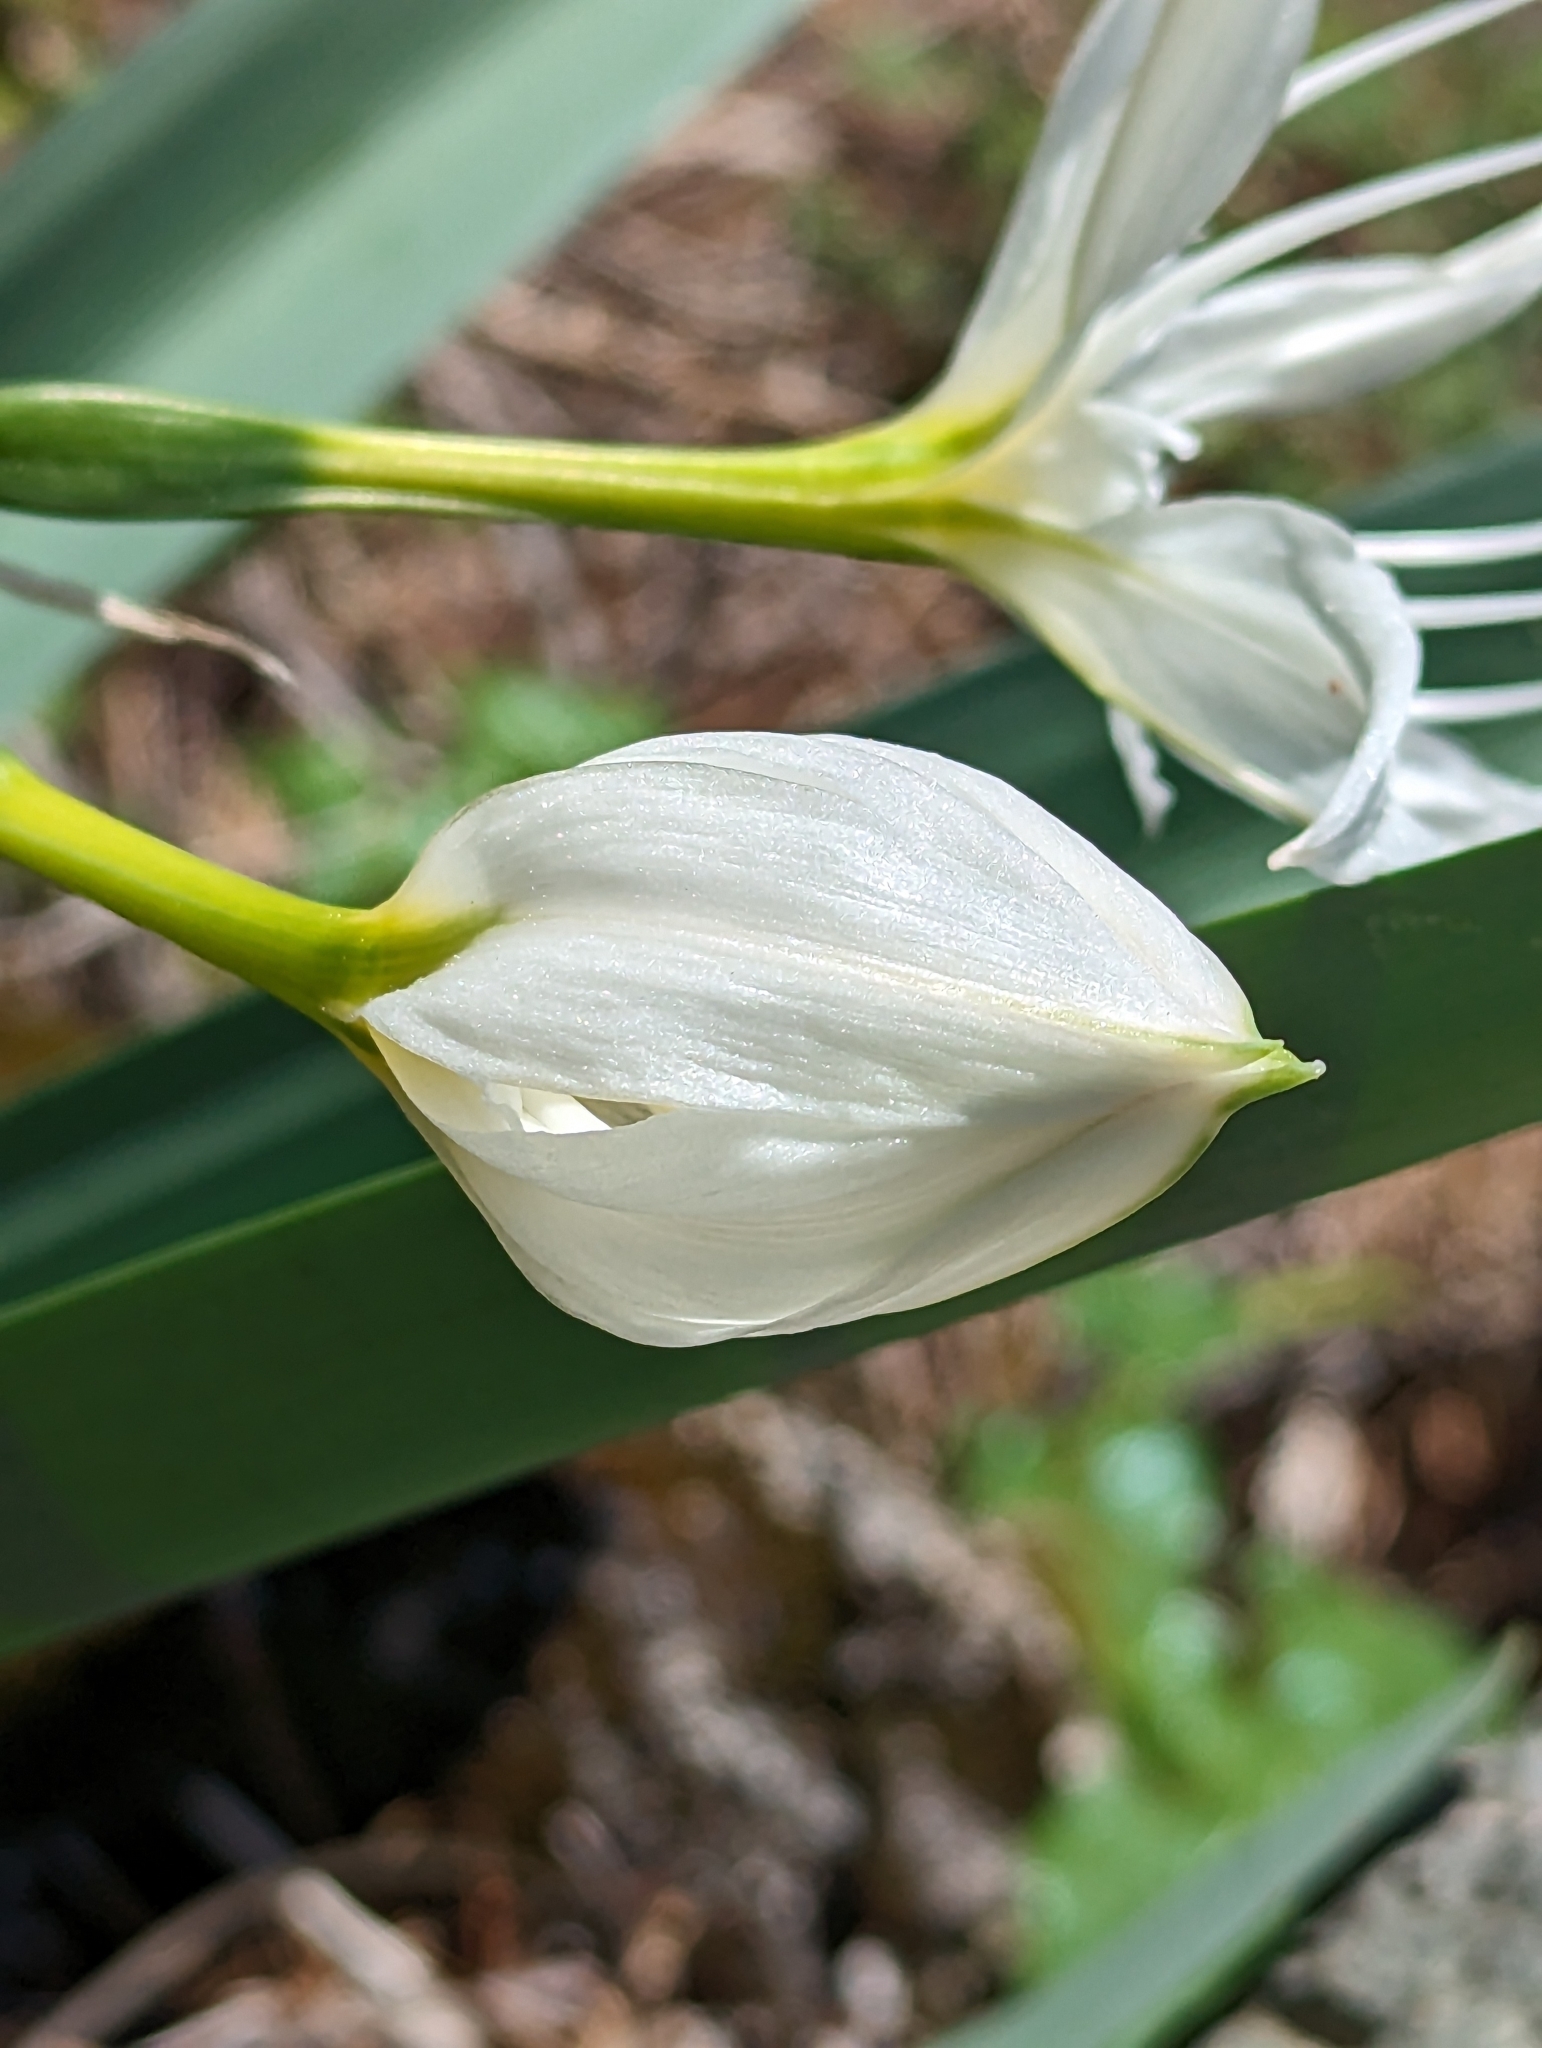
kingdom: Plantae
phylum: Tracheophyta
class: Liliopsida
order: Asparagales
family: Amaryllidaceae
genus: Pancratium
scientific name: Pancratium illyricum
